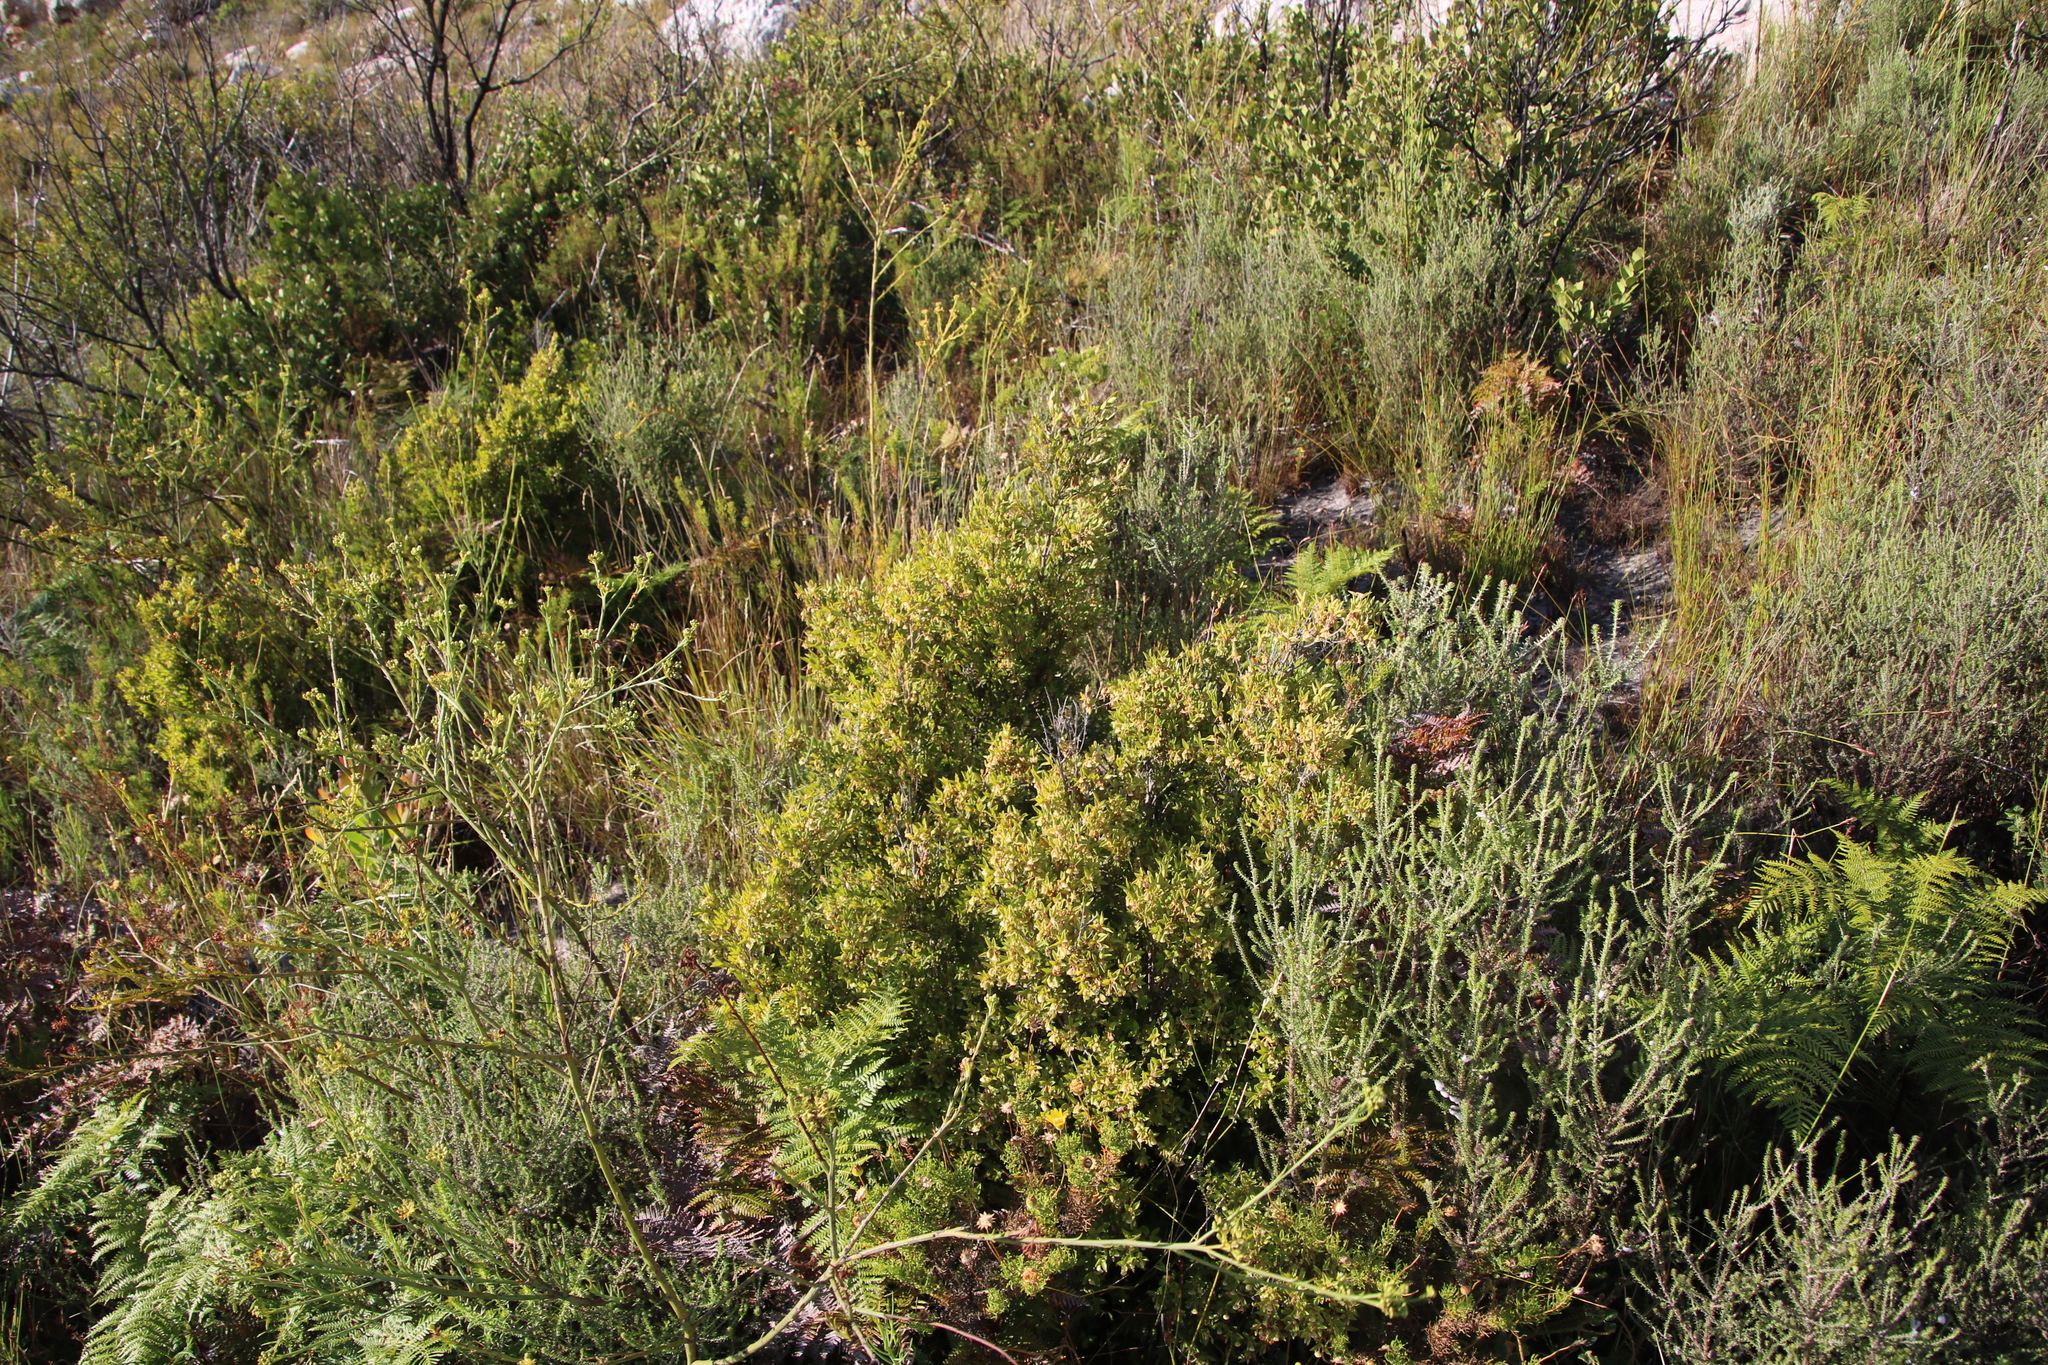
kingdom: Plantae
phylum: Tracheophyta
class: Magnoliopsida
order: Ericales
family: Ebenaceae
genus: Diospyros
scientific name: Diospyros glabra
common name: Fynbos star apple
